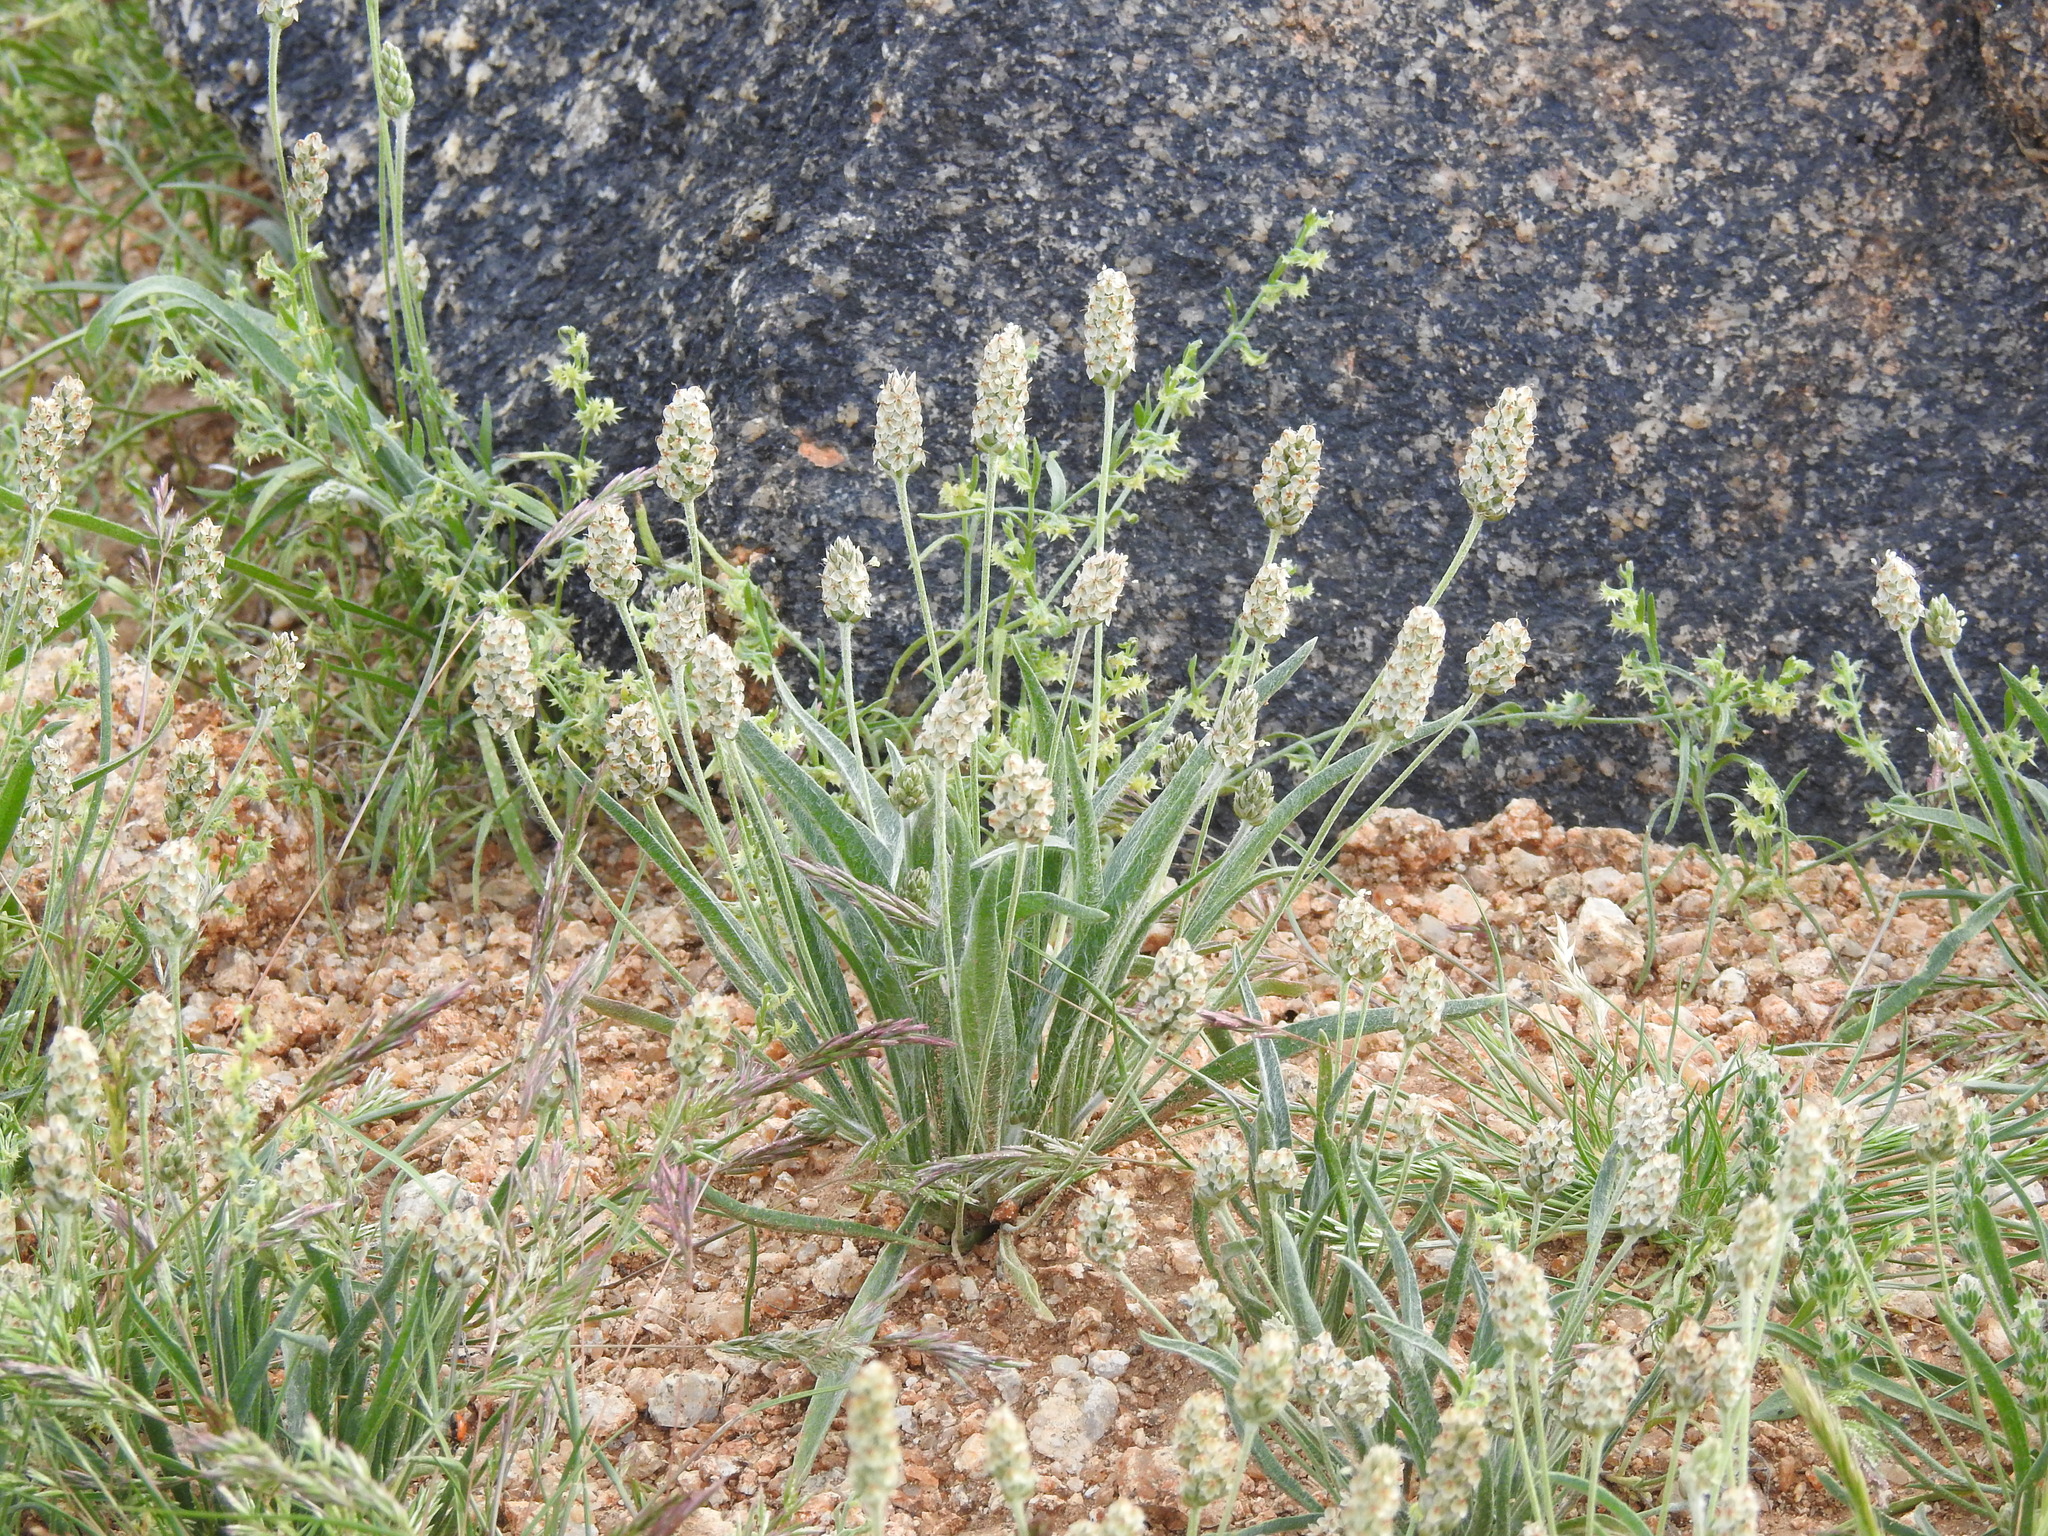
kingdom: Plantae
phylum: Tracheophyta
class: Magnoliopsida
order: Lamiales
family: Plantaginaceae
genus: Plantago
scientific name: Plantago ovata
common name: Blond plantain
